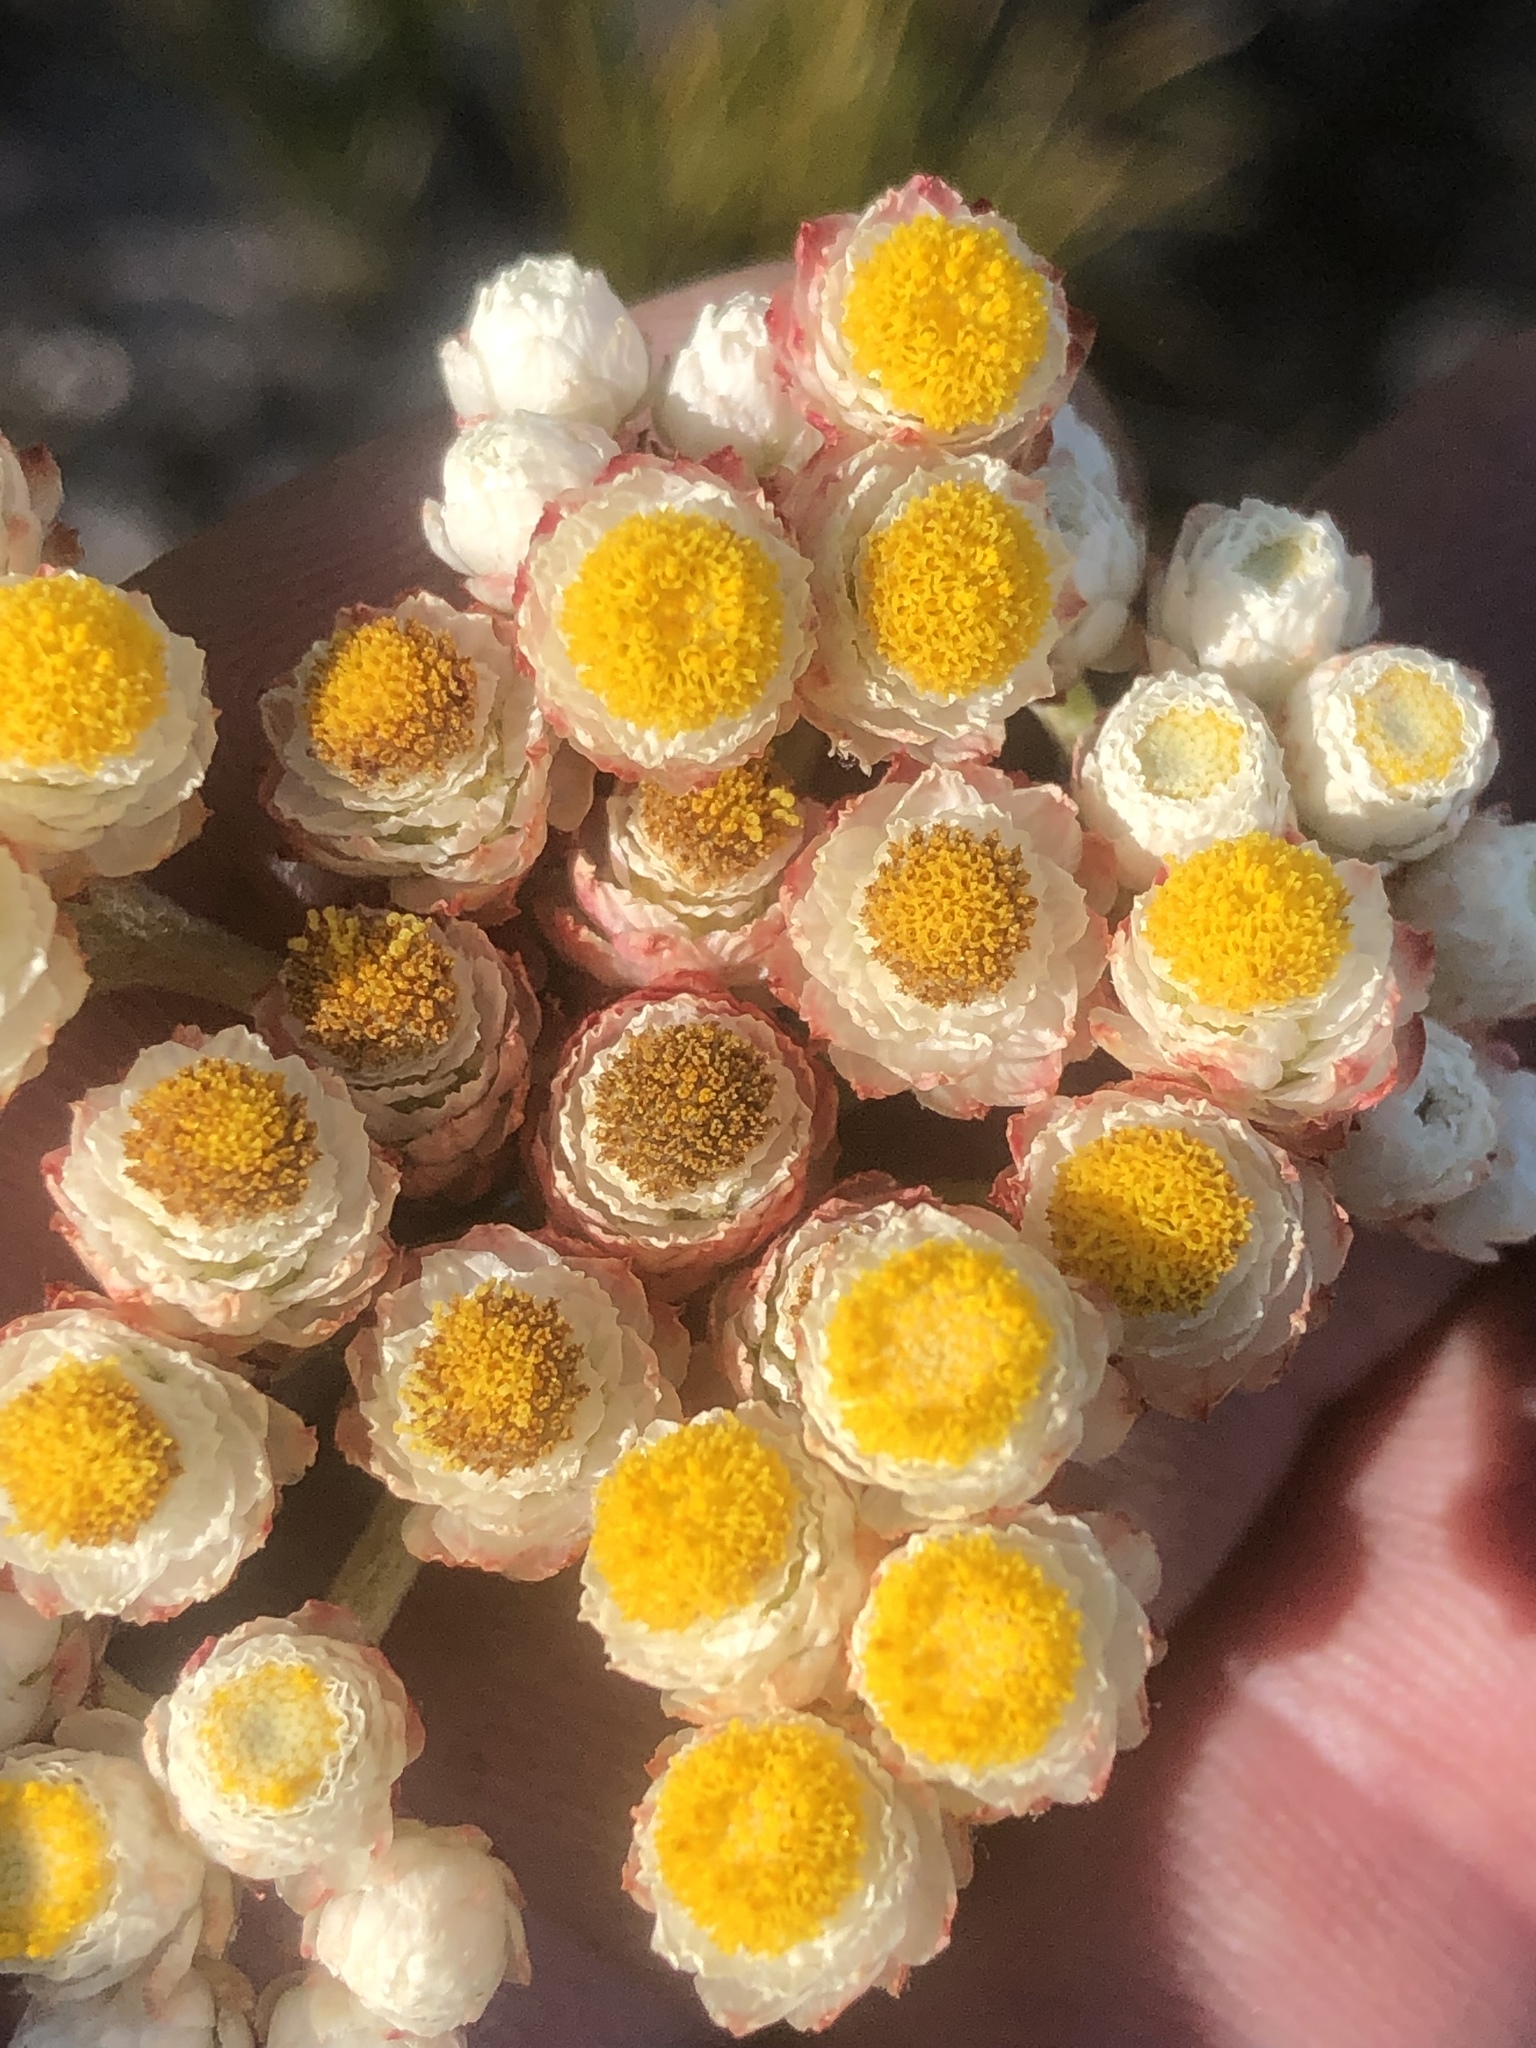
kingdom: Plantae
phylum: Tracheophyta
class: Magnoliopsida
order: Asterales
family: Asteraceae
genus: Helichrysum
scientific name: Helichrysum felinum
